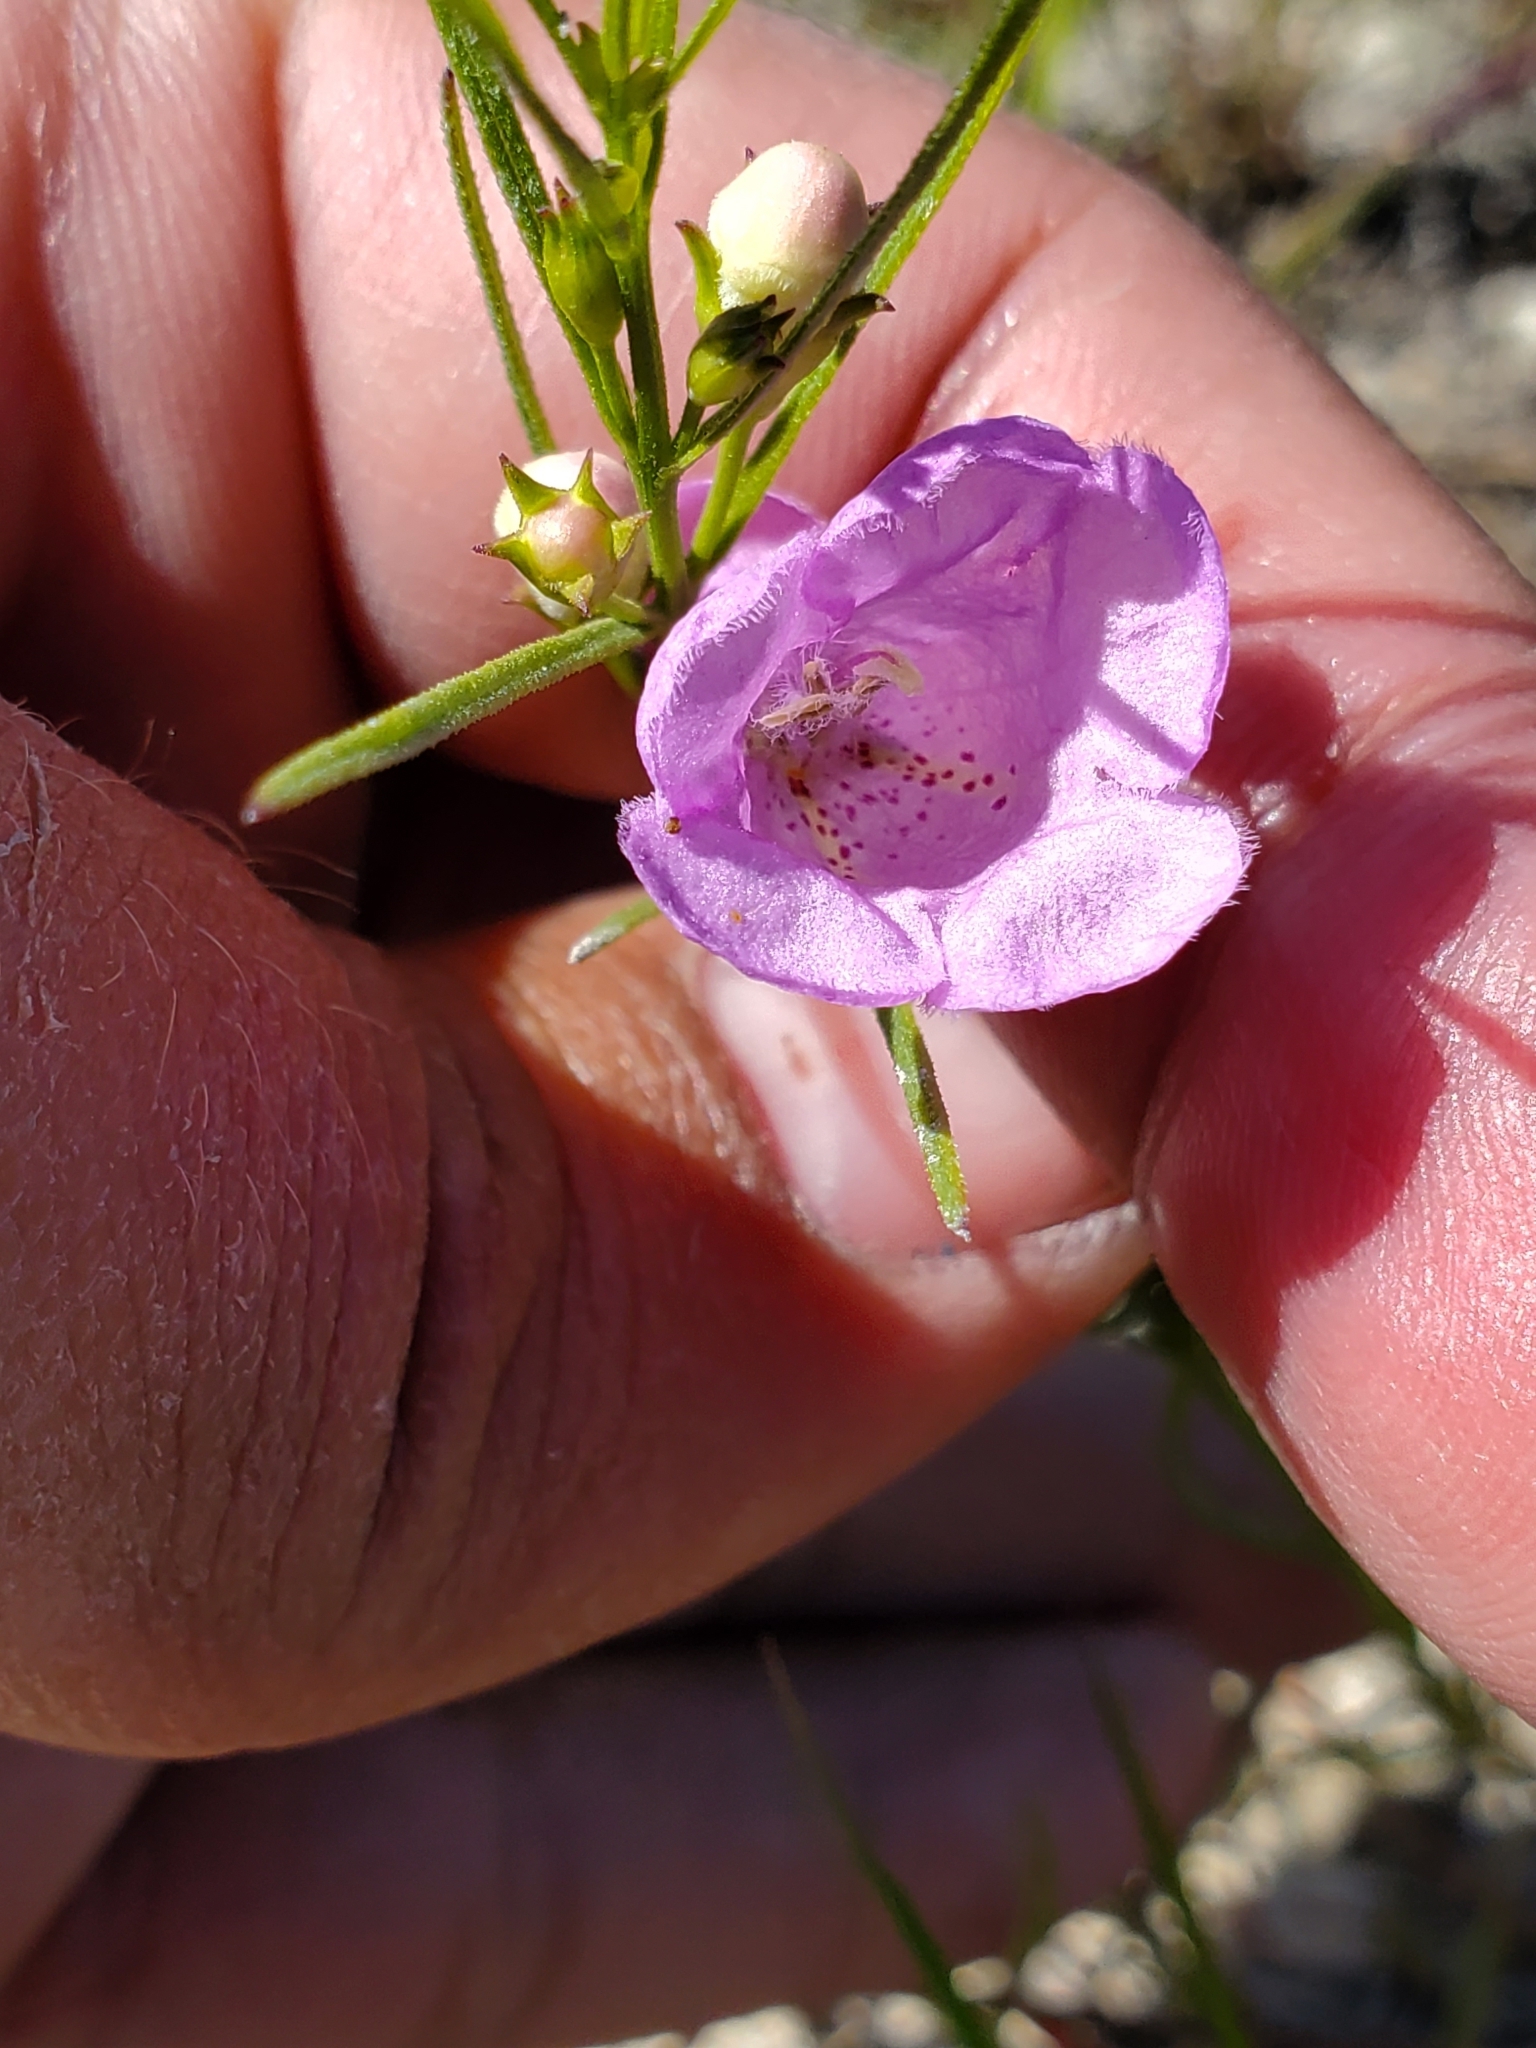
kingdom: Plantae
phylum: Tracheophyta
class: Magnoliopsida
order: Lamiales
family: Orobanchaceae
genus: Agalinis
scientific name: Agalinis aspera
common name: Rough agalinis
